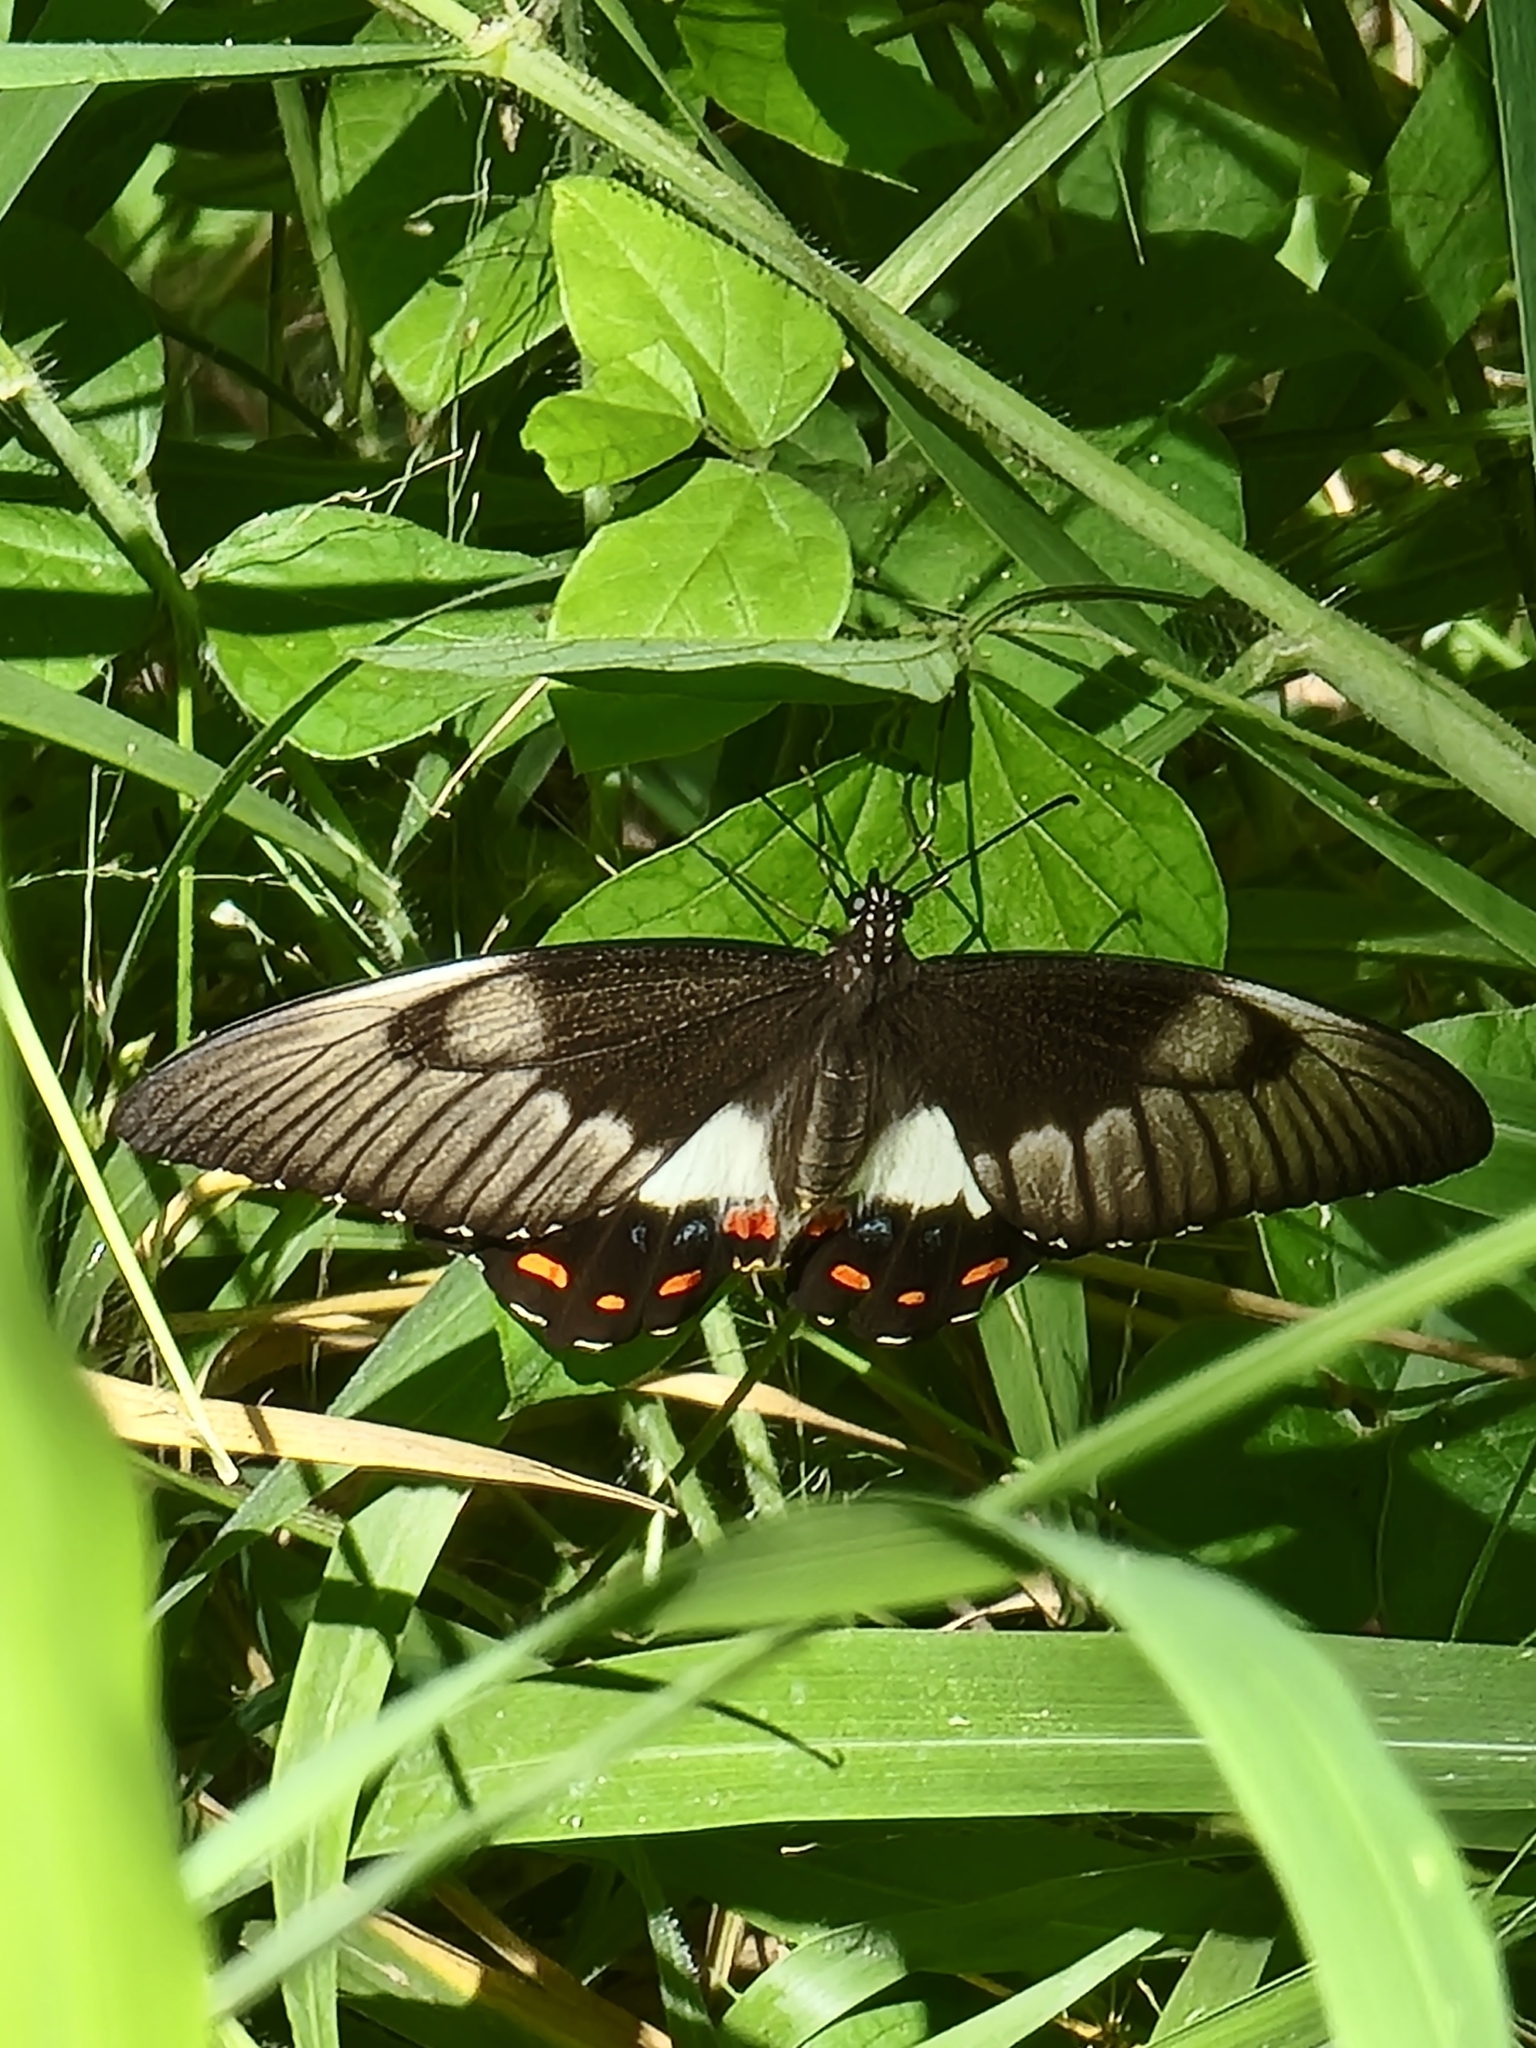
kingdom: Animalia
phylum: Arthropoda
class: Insecta
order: Lepidoptera
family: Papilionidae
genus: Papilio
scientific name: Papilio aegeus
